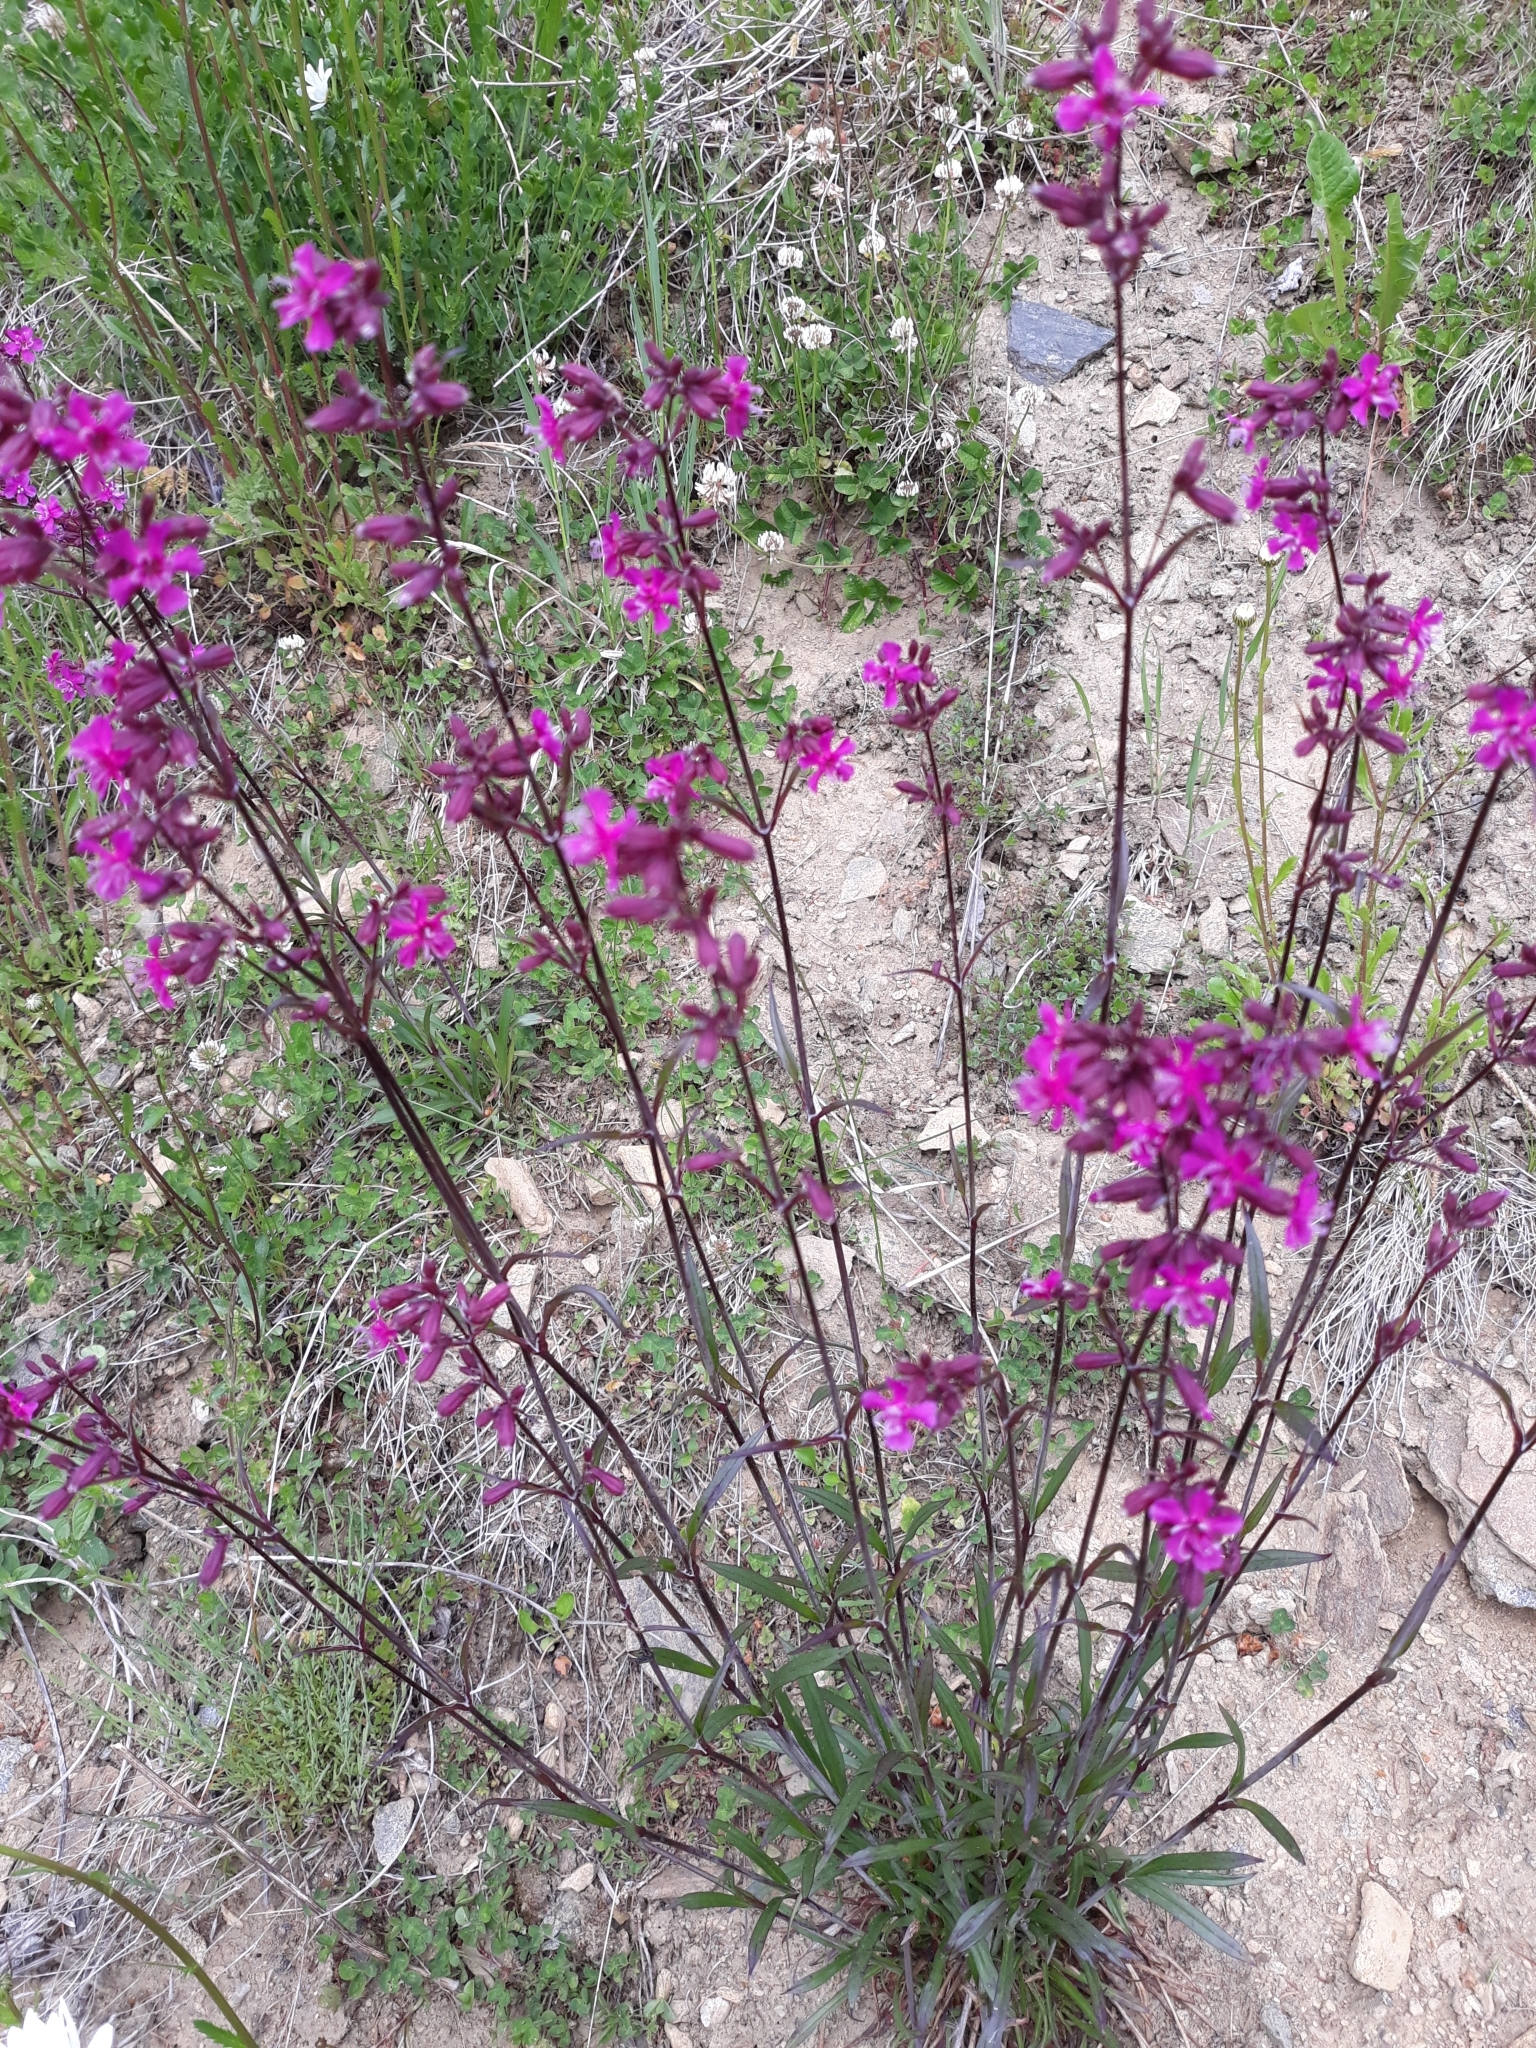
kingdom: Plantae
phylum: Tracheophyta
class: Magnoliopsida
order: Caryophyllales
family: Caryophyllaceae
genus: Viscaria
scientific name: Viscaria vulgaris
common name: Clammy campion
